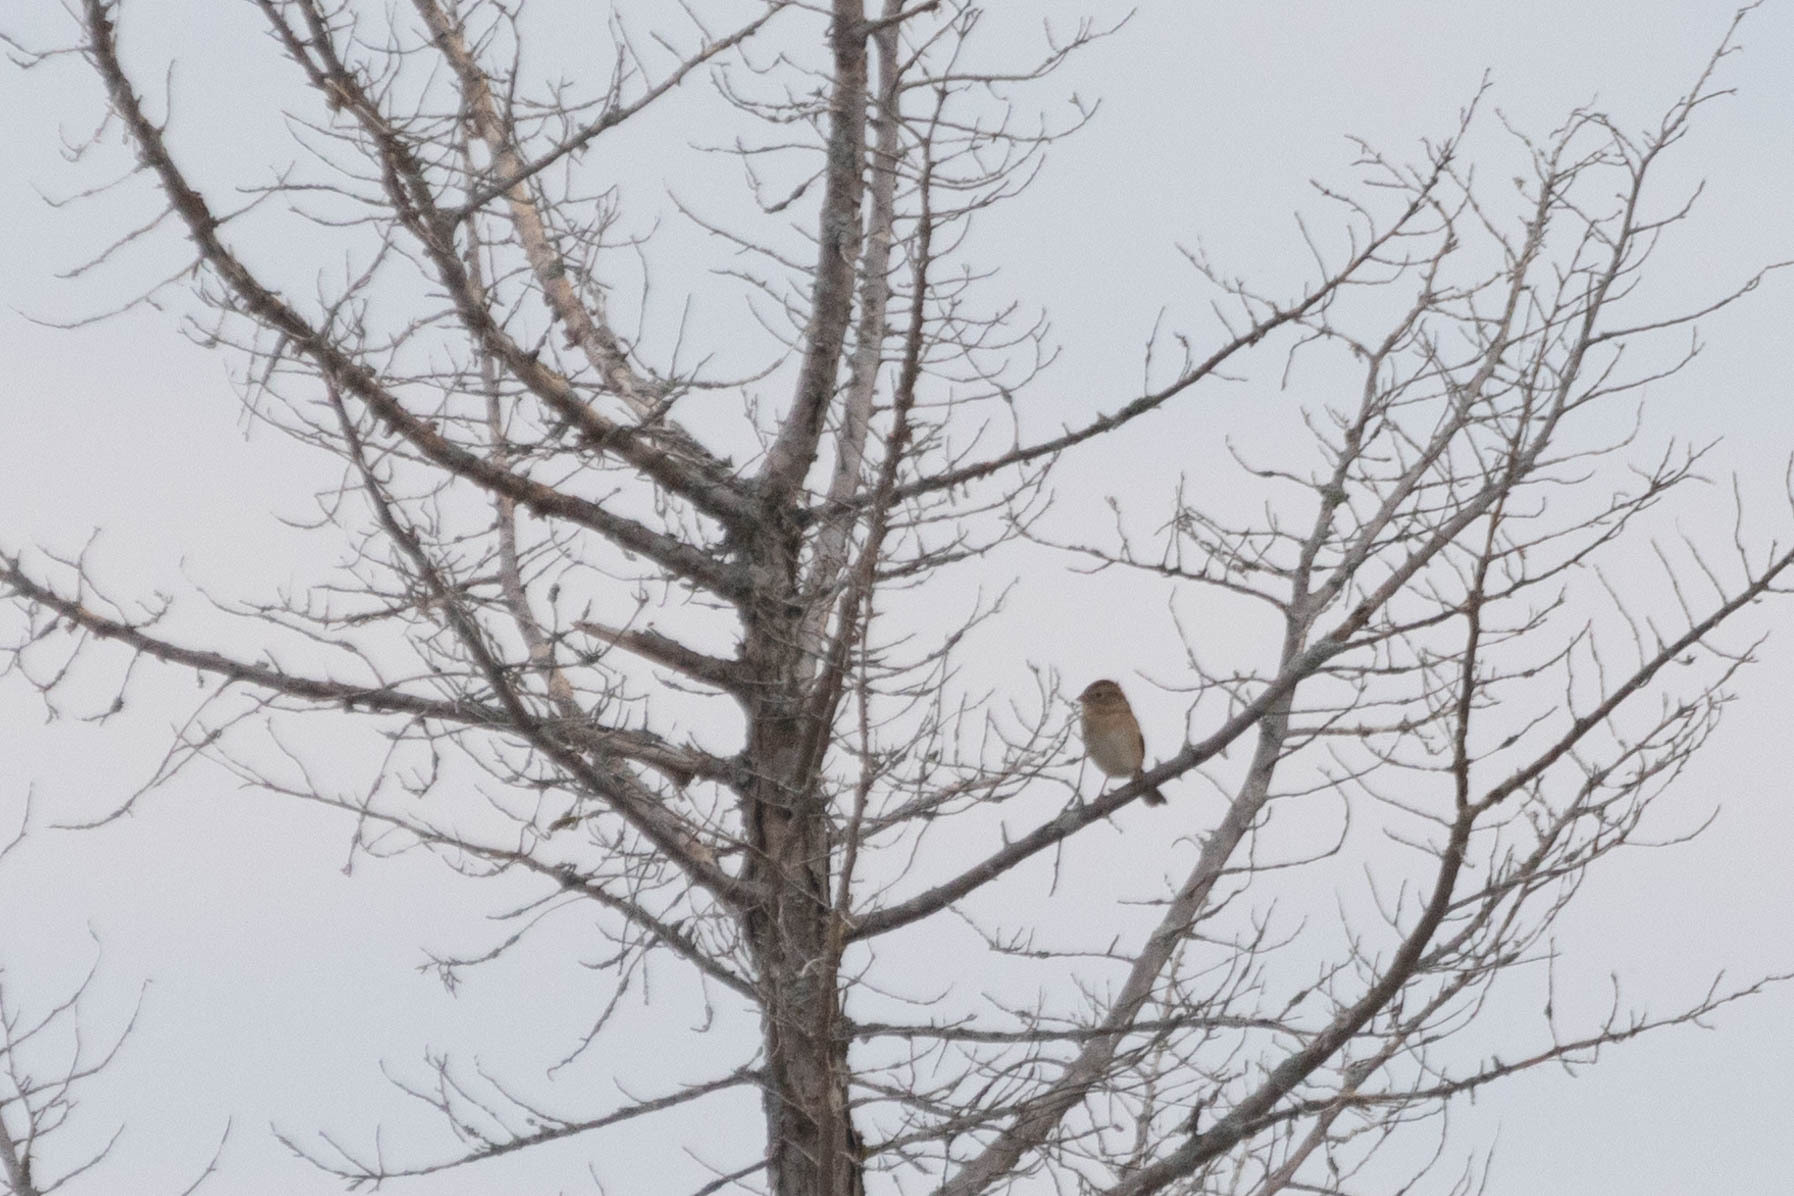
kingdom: Animalia
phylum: Chordata
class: Aves
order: Passeriformes
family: Passerellidae
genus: Spizella
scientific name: Spizella pusilla
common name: Field sparrow
